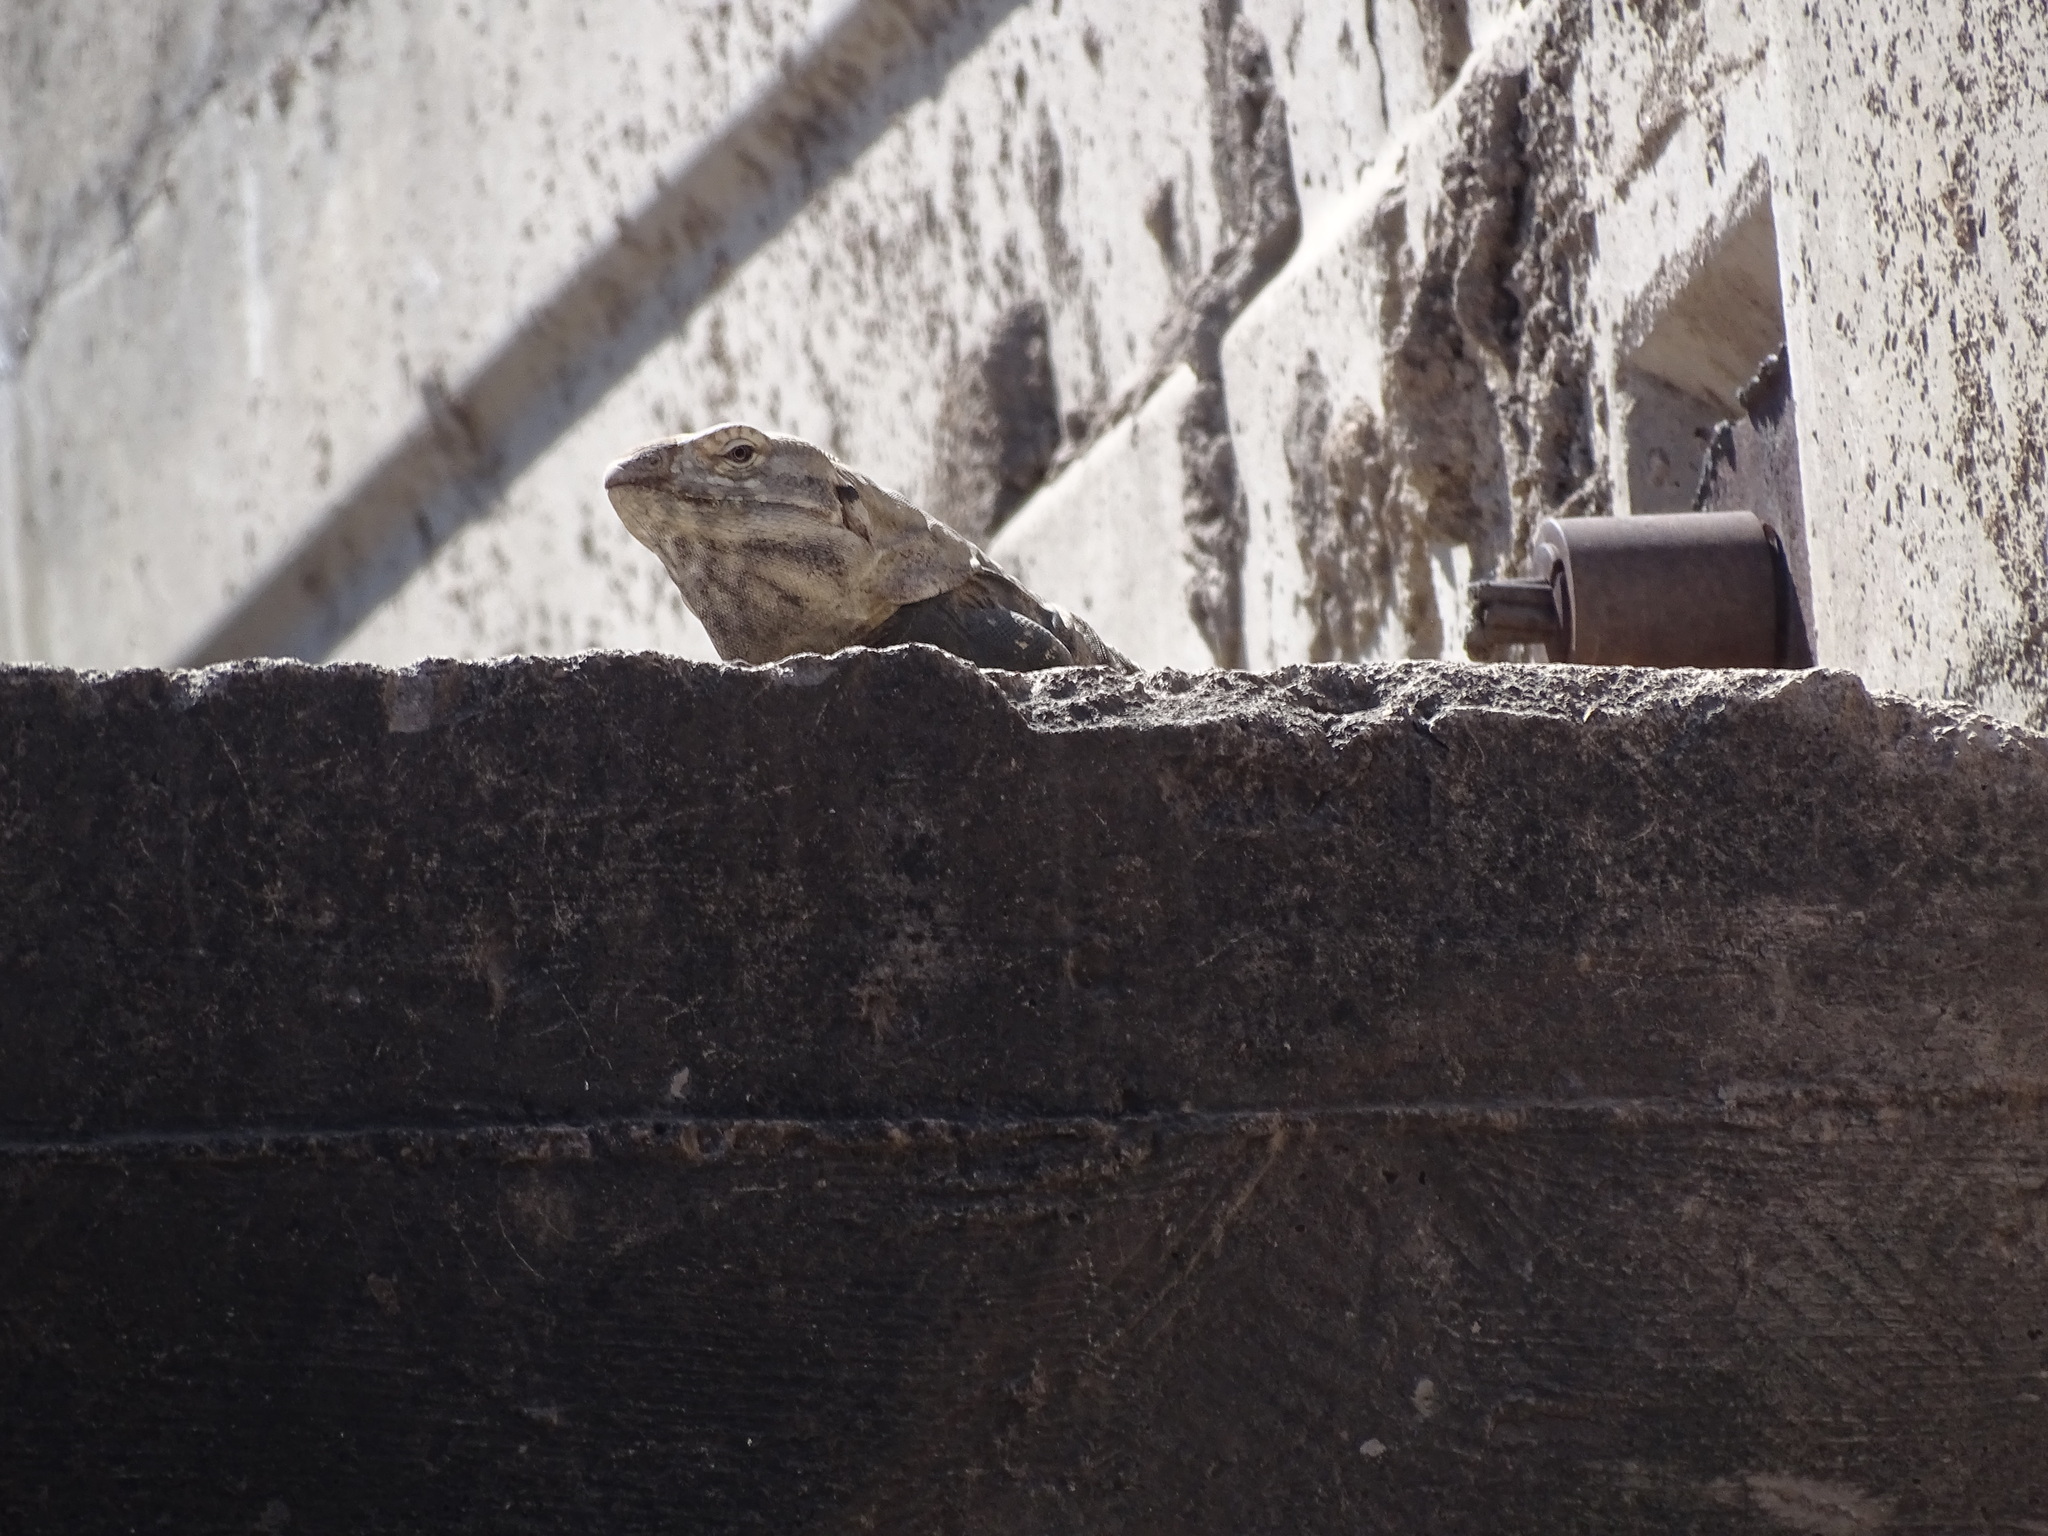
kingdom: Animalia
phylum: Chordata
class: Squamata
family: Iguanidae
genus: Ctenosaura
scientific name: Ctenosaura macrolopha
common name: Cape spinytail iguana
